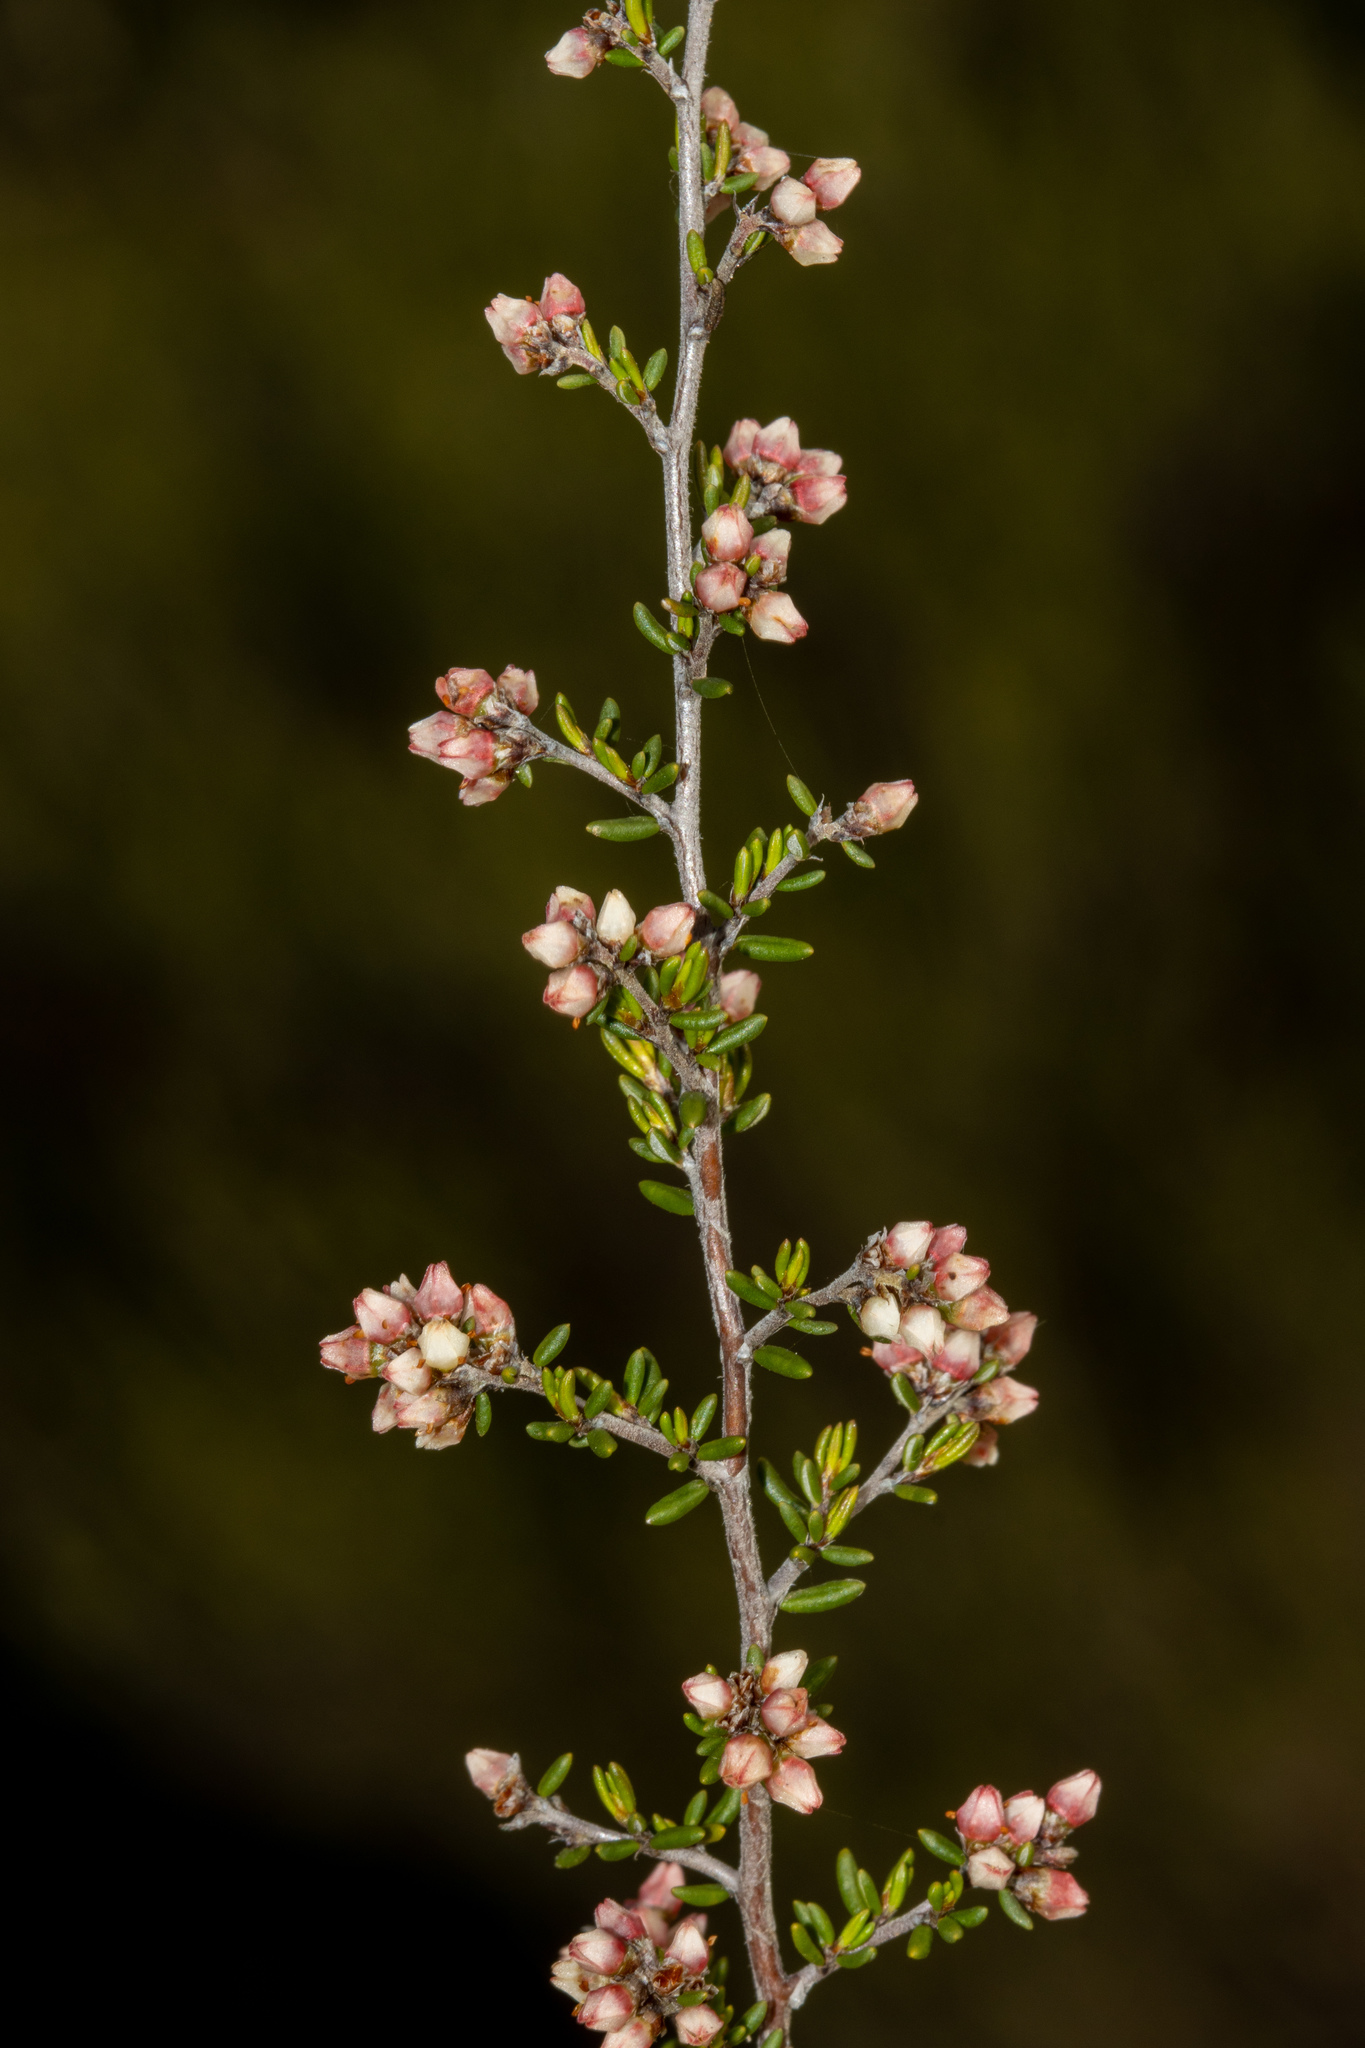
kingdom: Plantae
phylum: Tracheophyta
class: Magnoliopsida
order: Rosales
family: Rhamnaceae
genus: Cryptandra
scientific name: Cryptandra tomentosa
